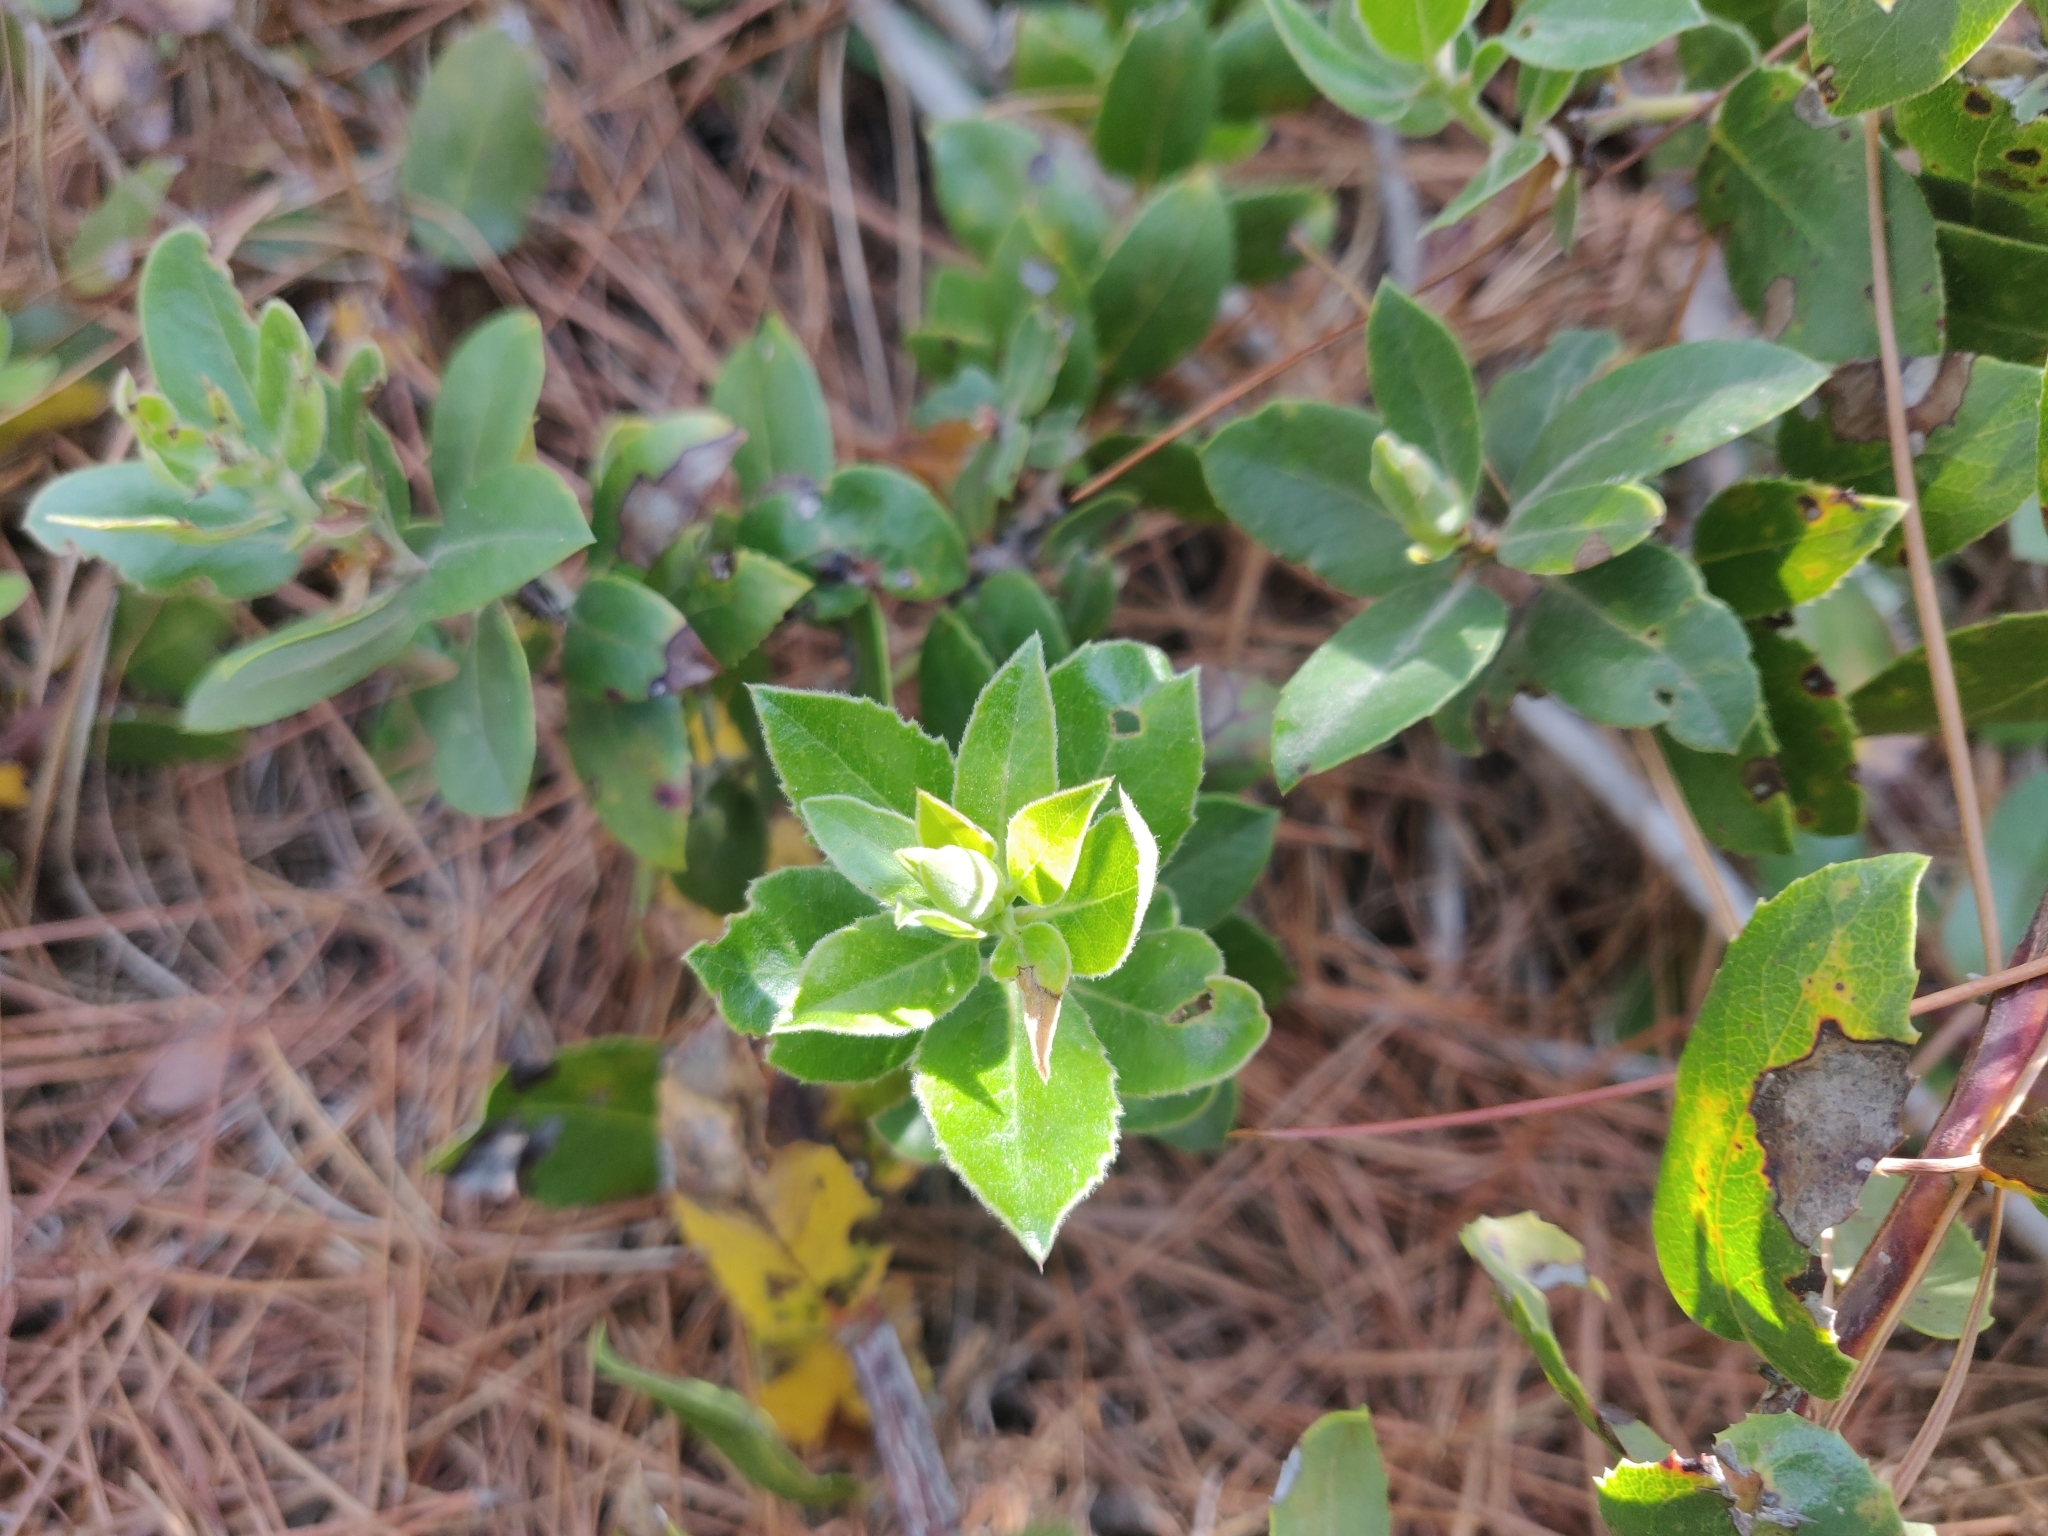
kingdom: Plantae
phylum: Tracheophyta
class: Magnoliopsida
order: Ericales
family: Ericaceae
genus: Arctostaphylos
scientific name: Arctostaphylos tomentosa
